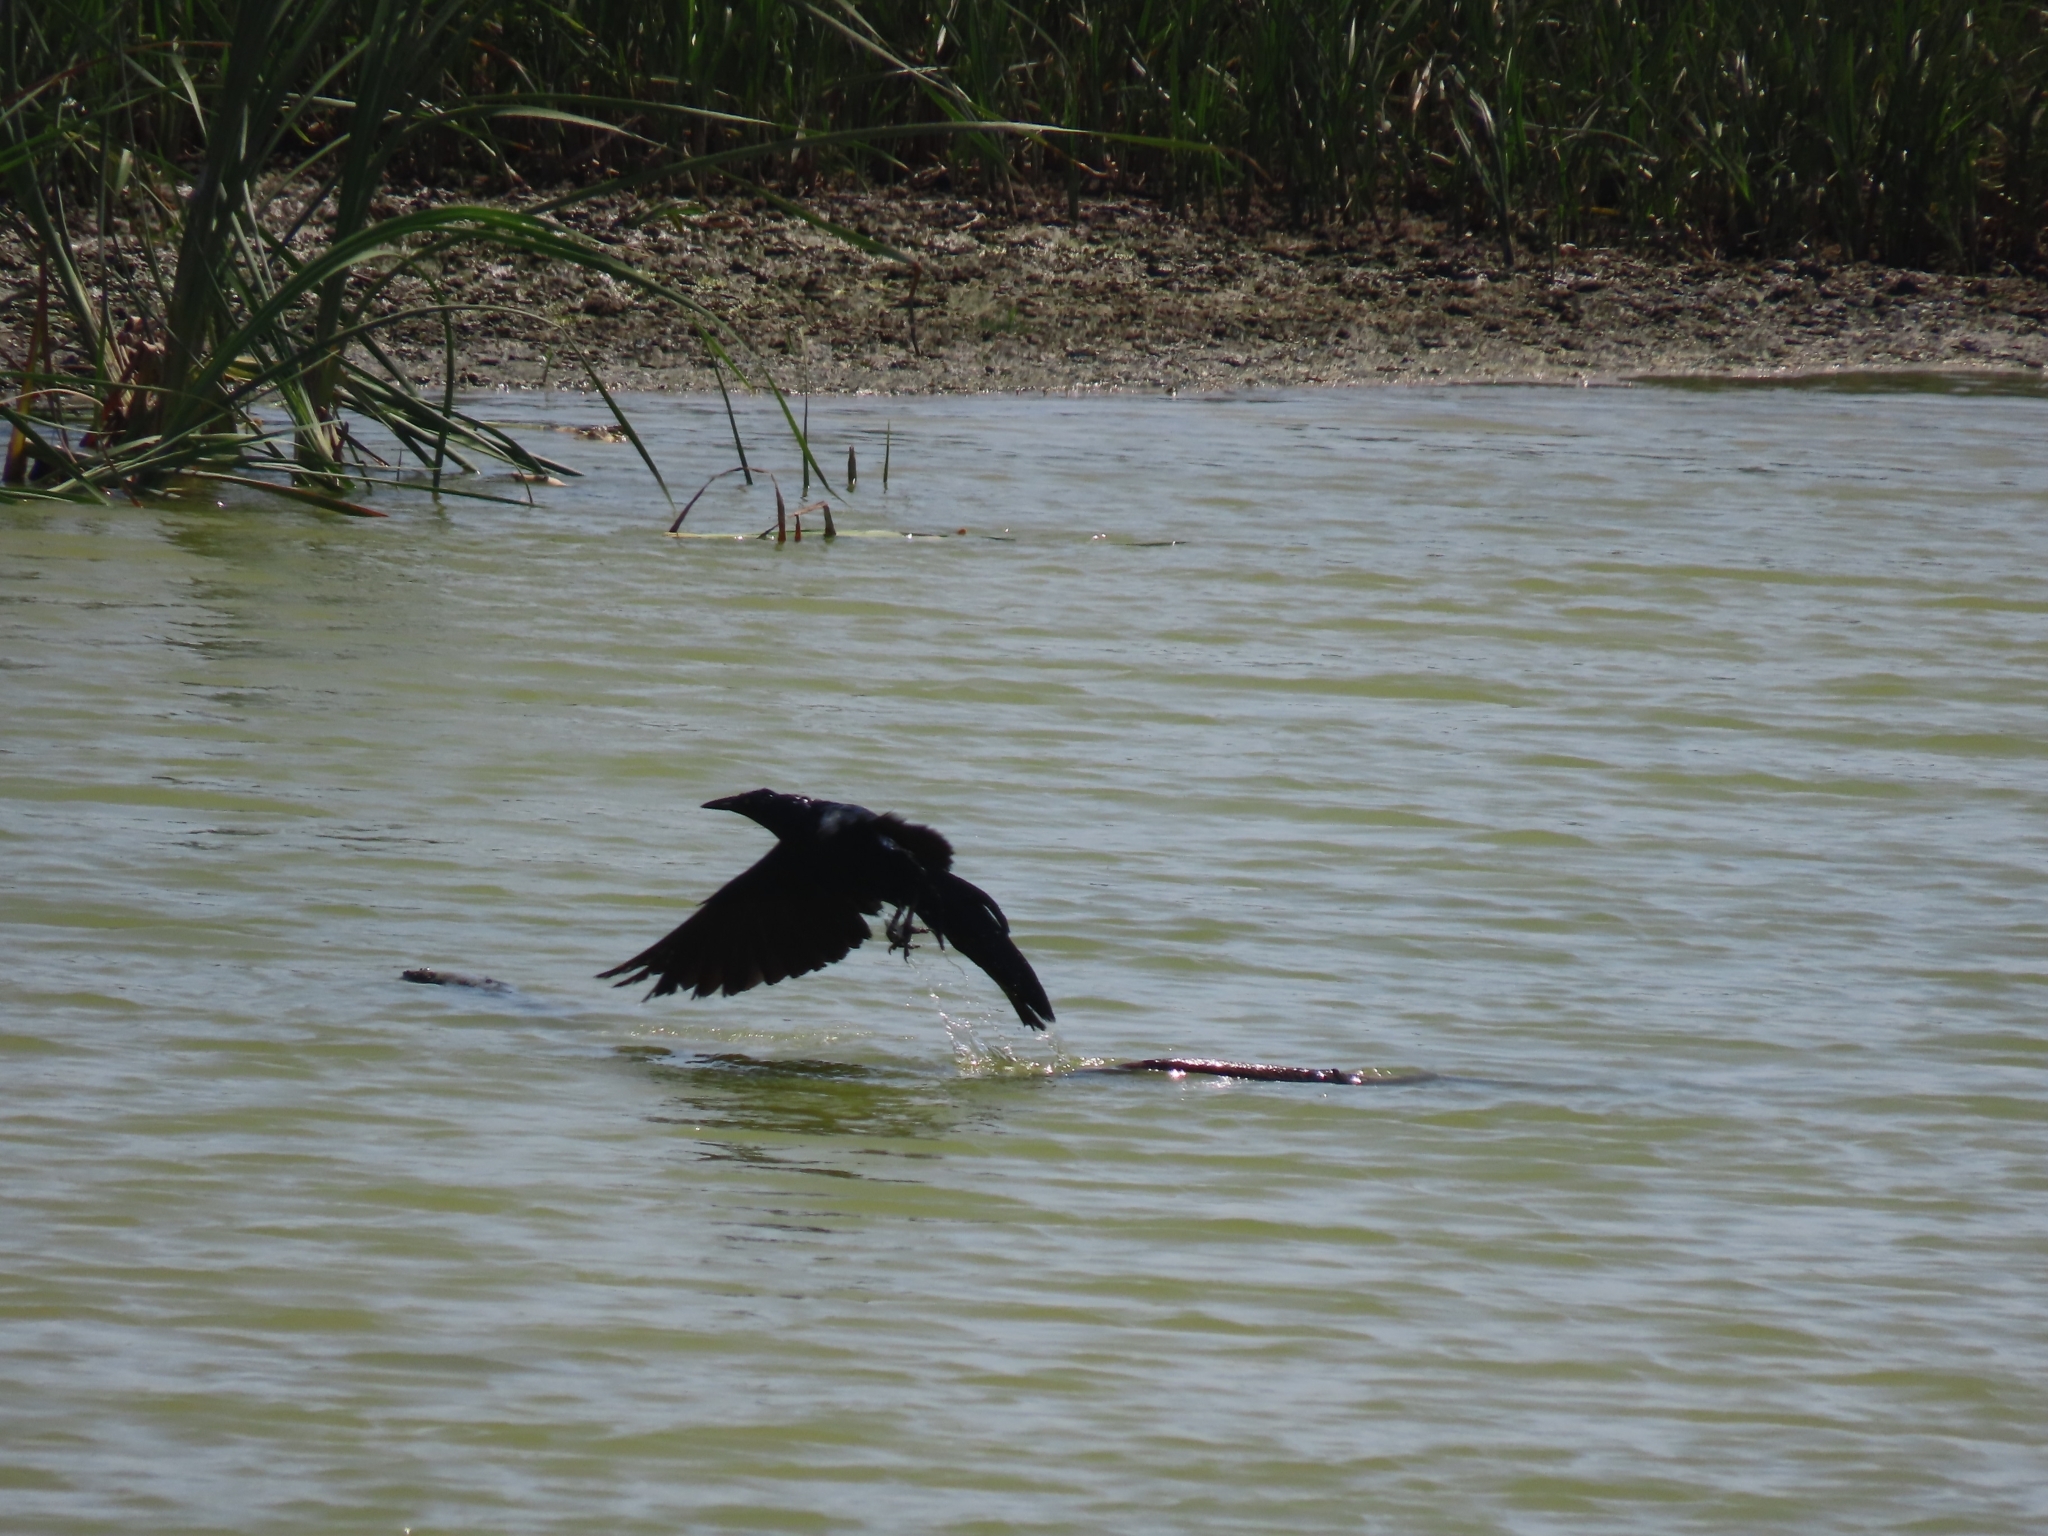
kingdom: Animalia
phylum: Chordata
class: Aves
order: Passeriformes
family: Icteridae
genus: Quiscalus
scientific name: Quiscalus mexicanus
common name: Great-tailed grackle
